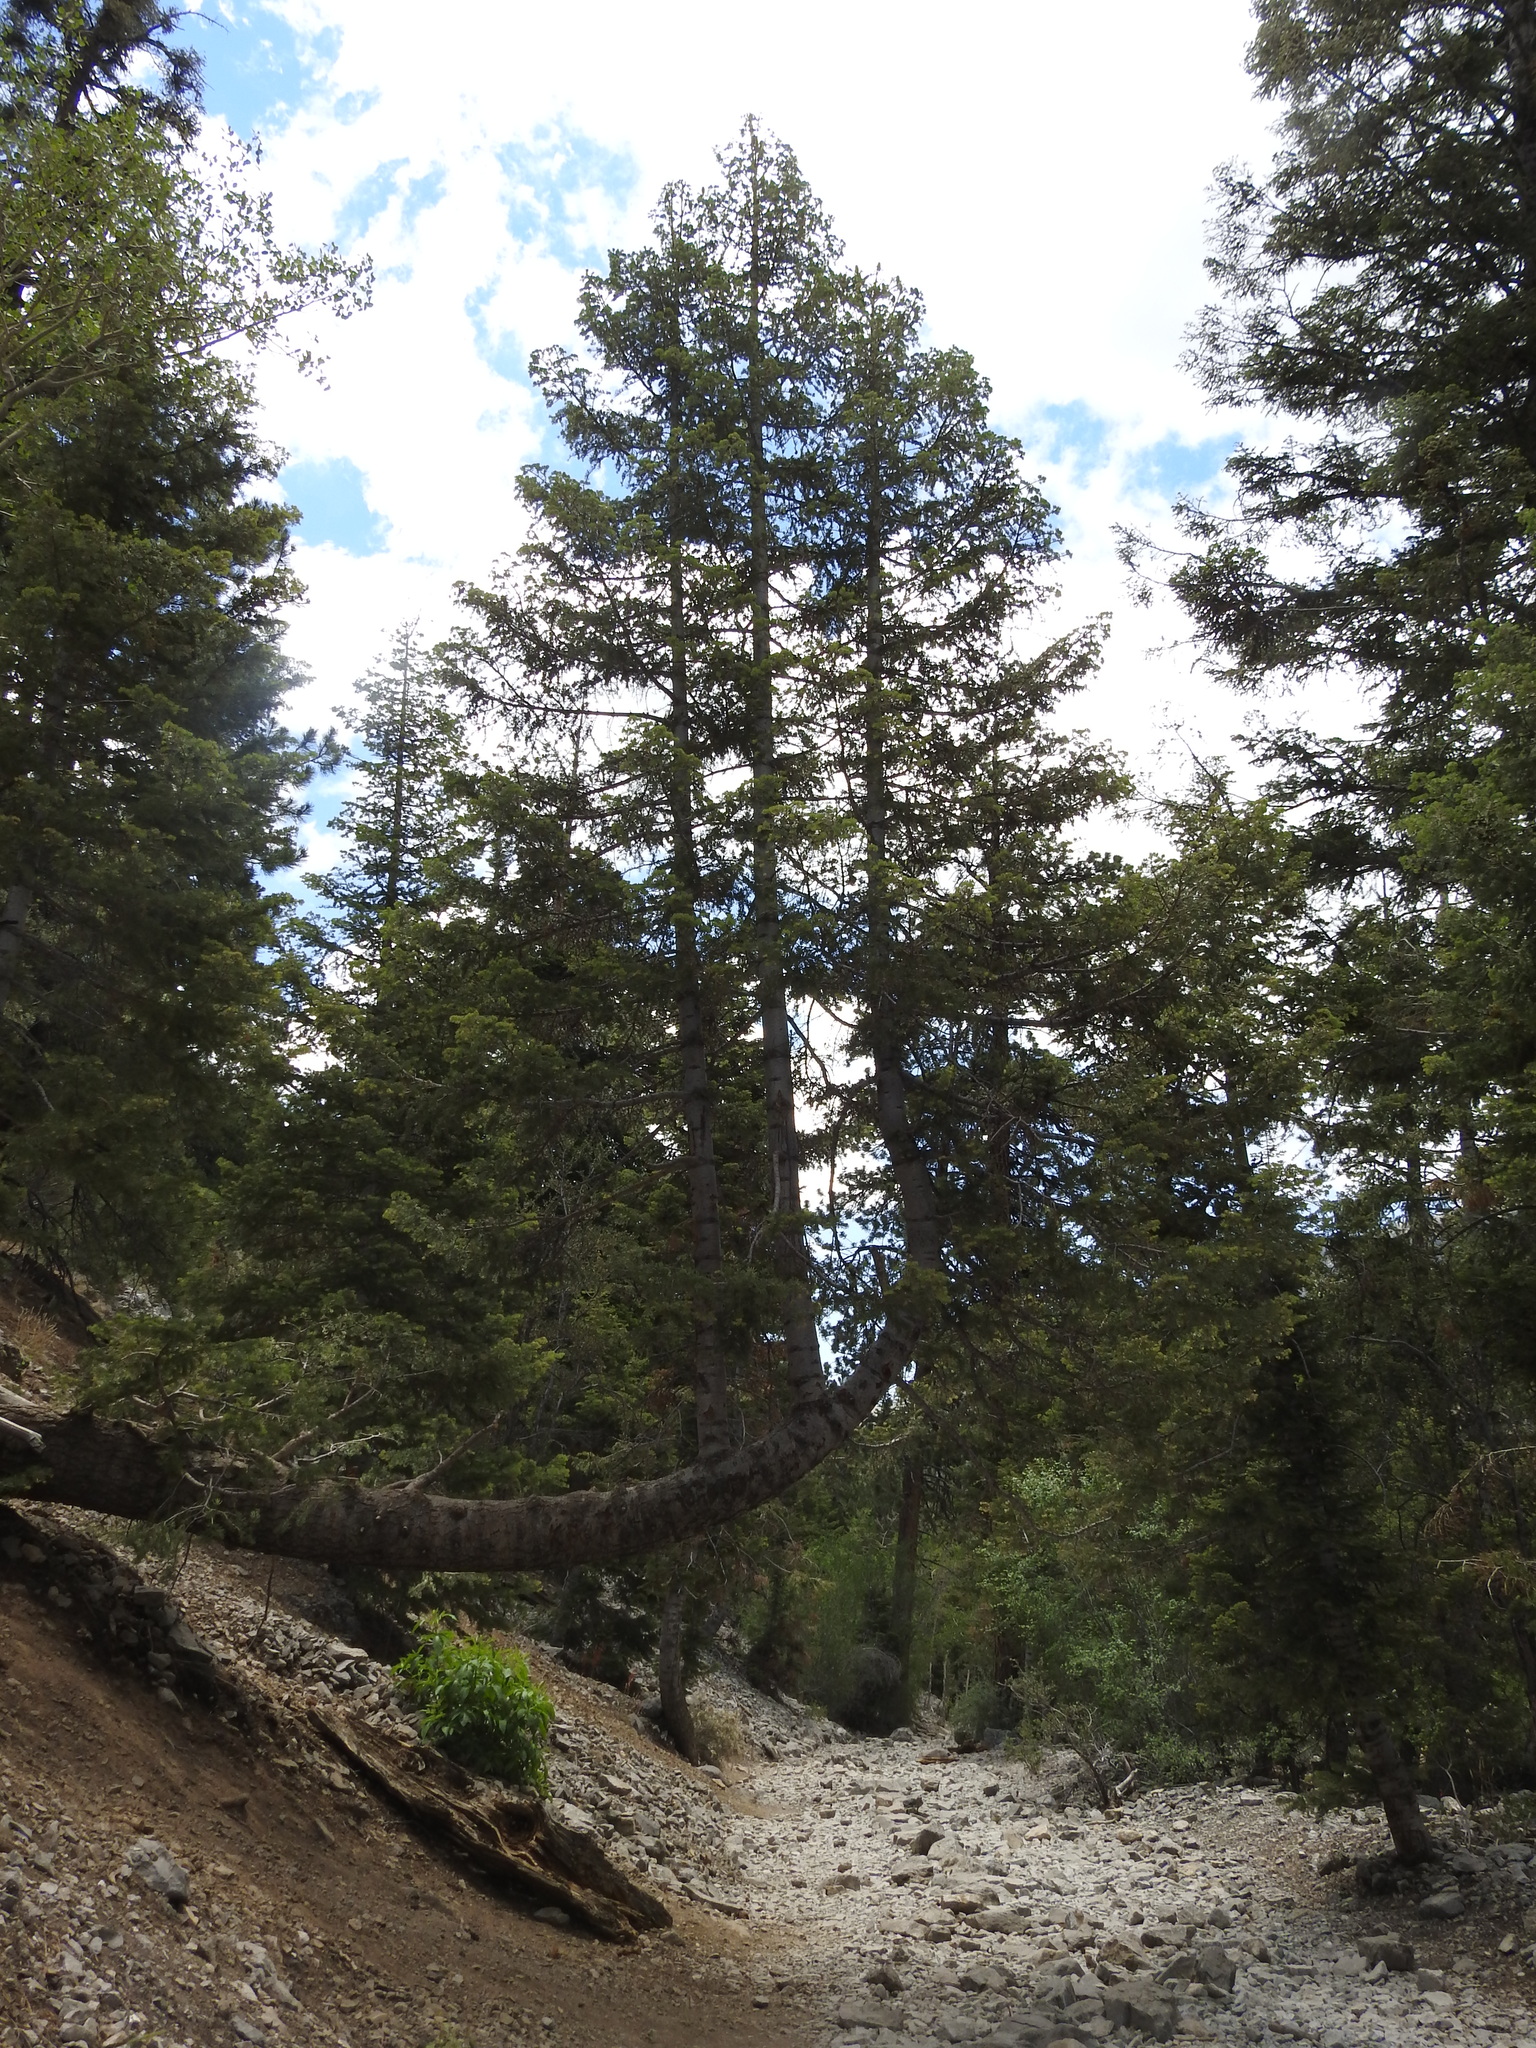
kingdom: Plantae
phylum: Tracheophyta
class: Pinopsida
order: Pinales
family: Pinaceae
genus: Abies
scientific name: Abies concolor
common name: Colorado fir
